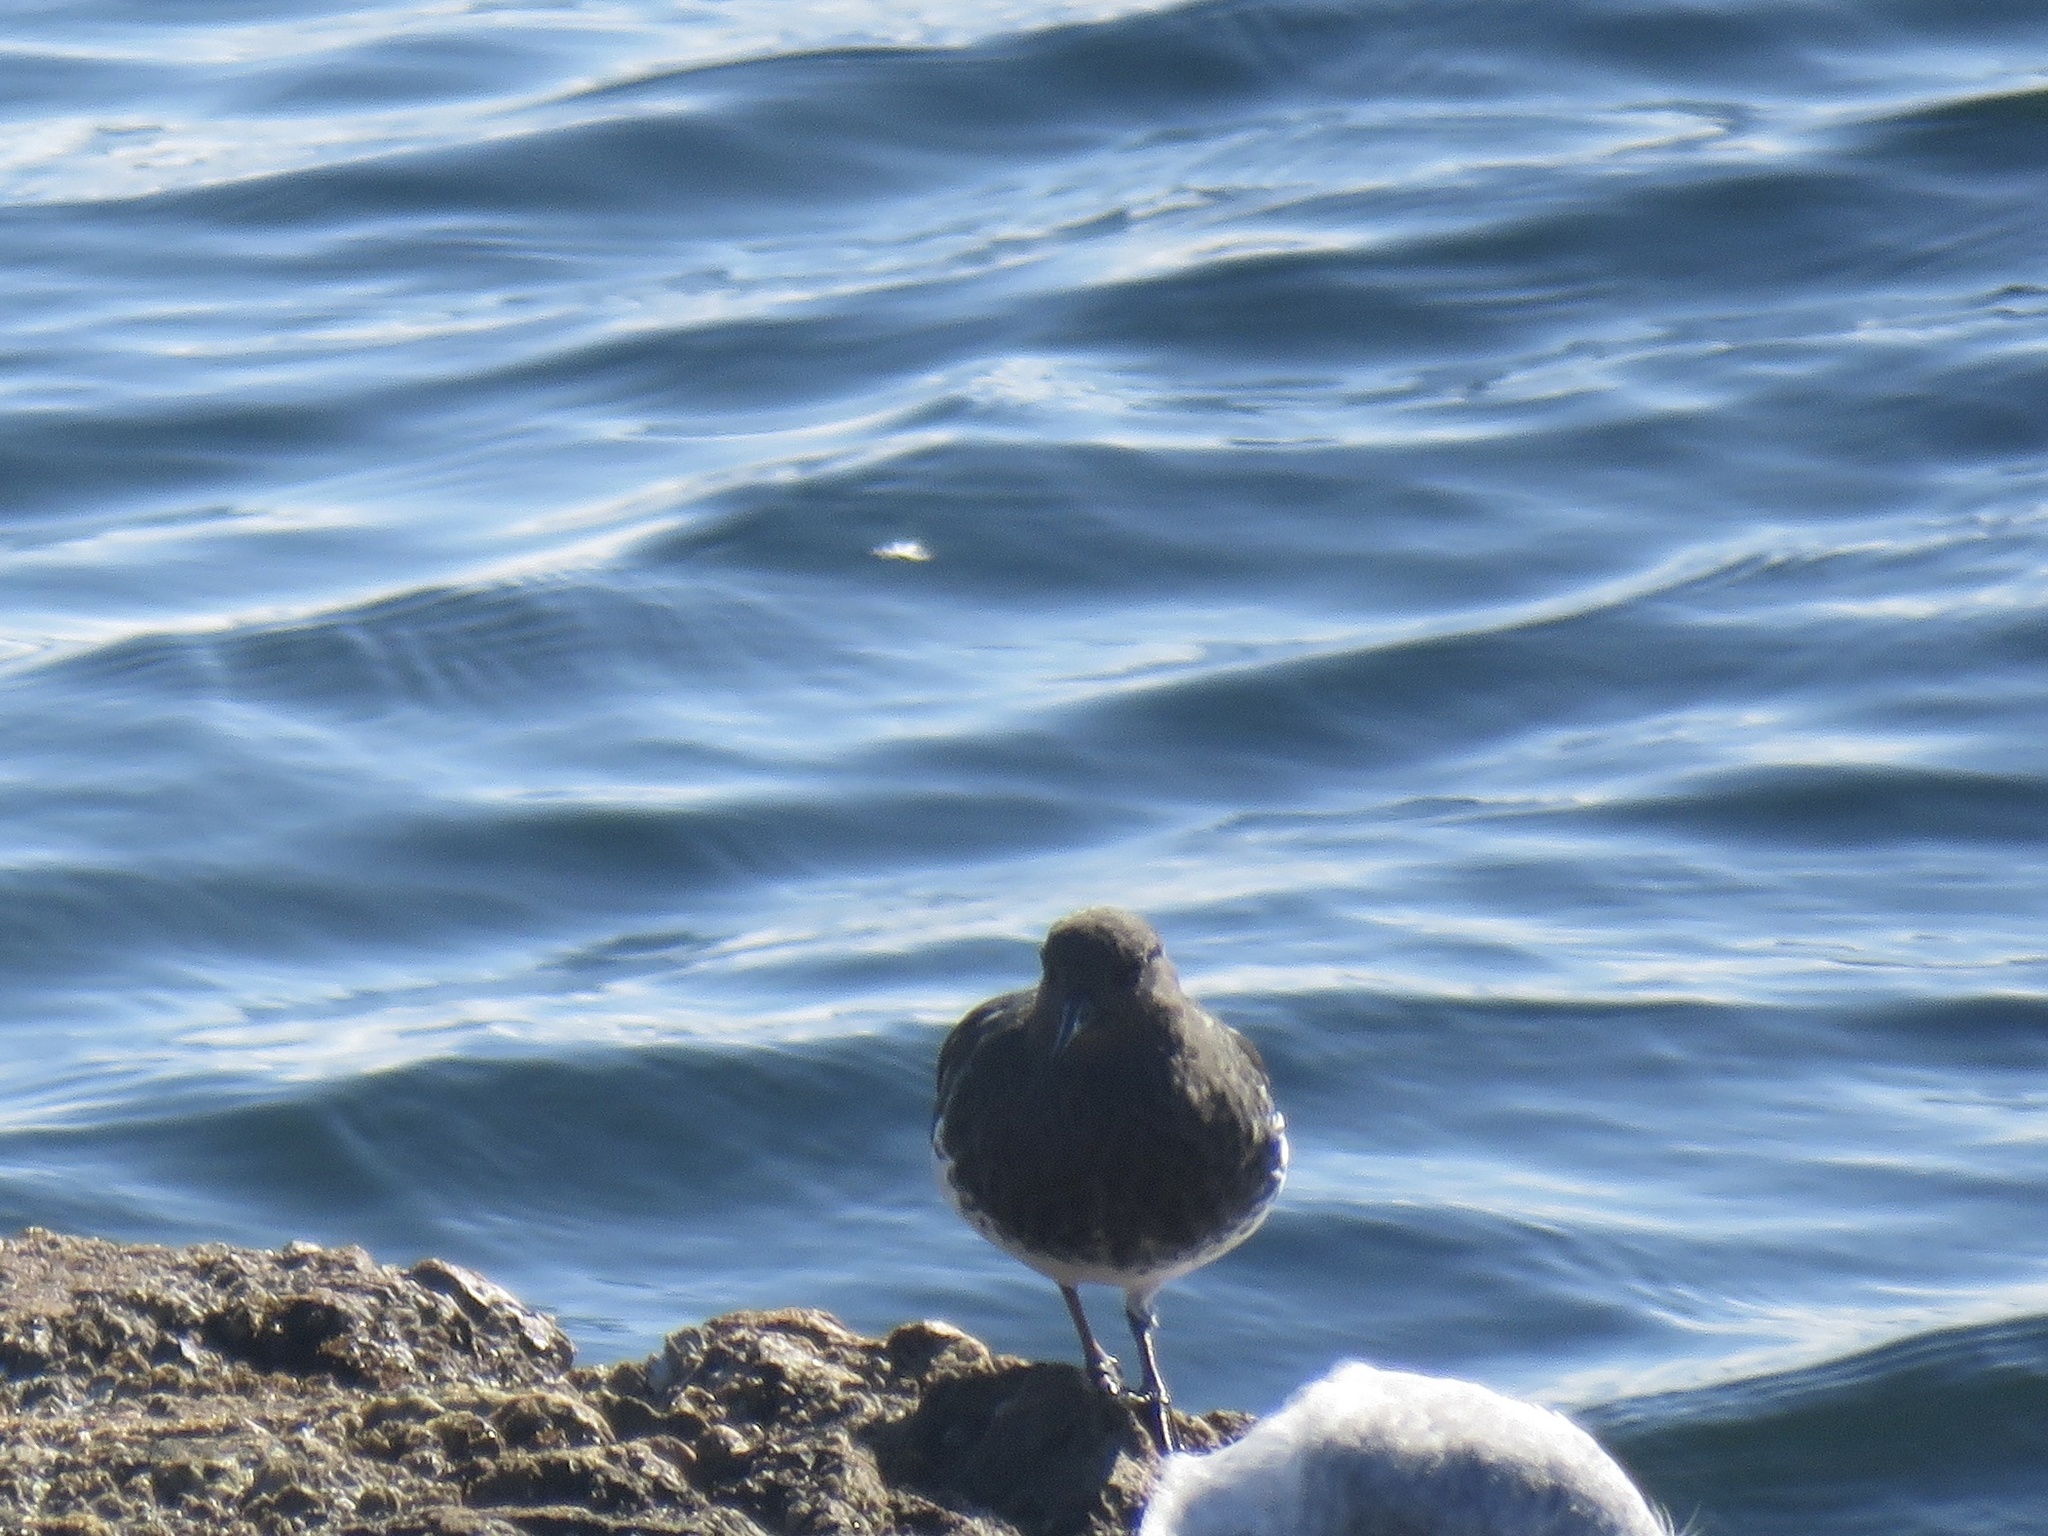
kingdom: Animalia
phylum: Chordata
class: Aves
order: Charadriiformes
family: Scolopacidae
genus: Arenaria
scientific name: Arenaria melanocephala
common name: Black turnstone
